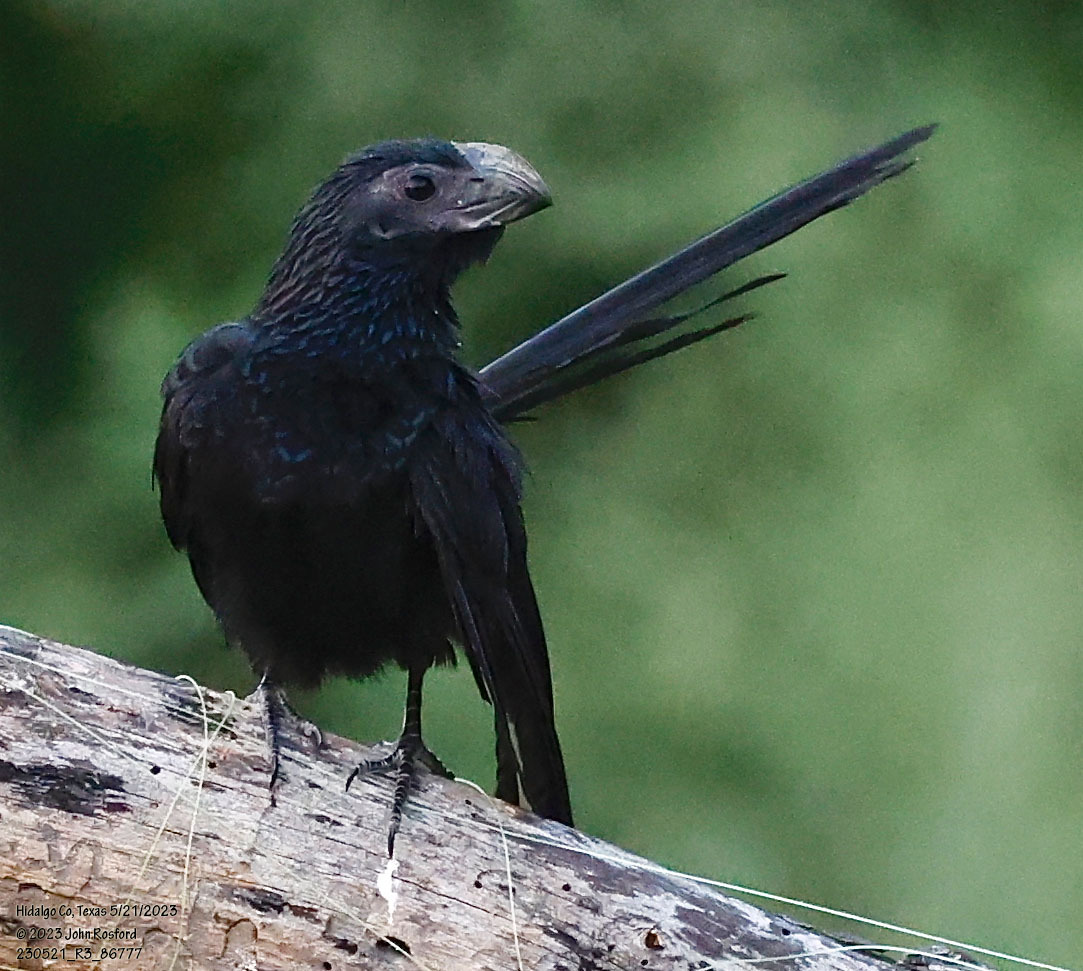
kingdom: Animalia
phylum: Chordata
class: Aves
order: Cuculiformes
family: Cuculidae
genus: Crotophaga
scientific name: Crotophaga sulcirostris
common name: Groove-billed ani
